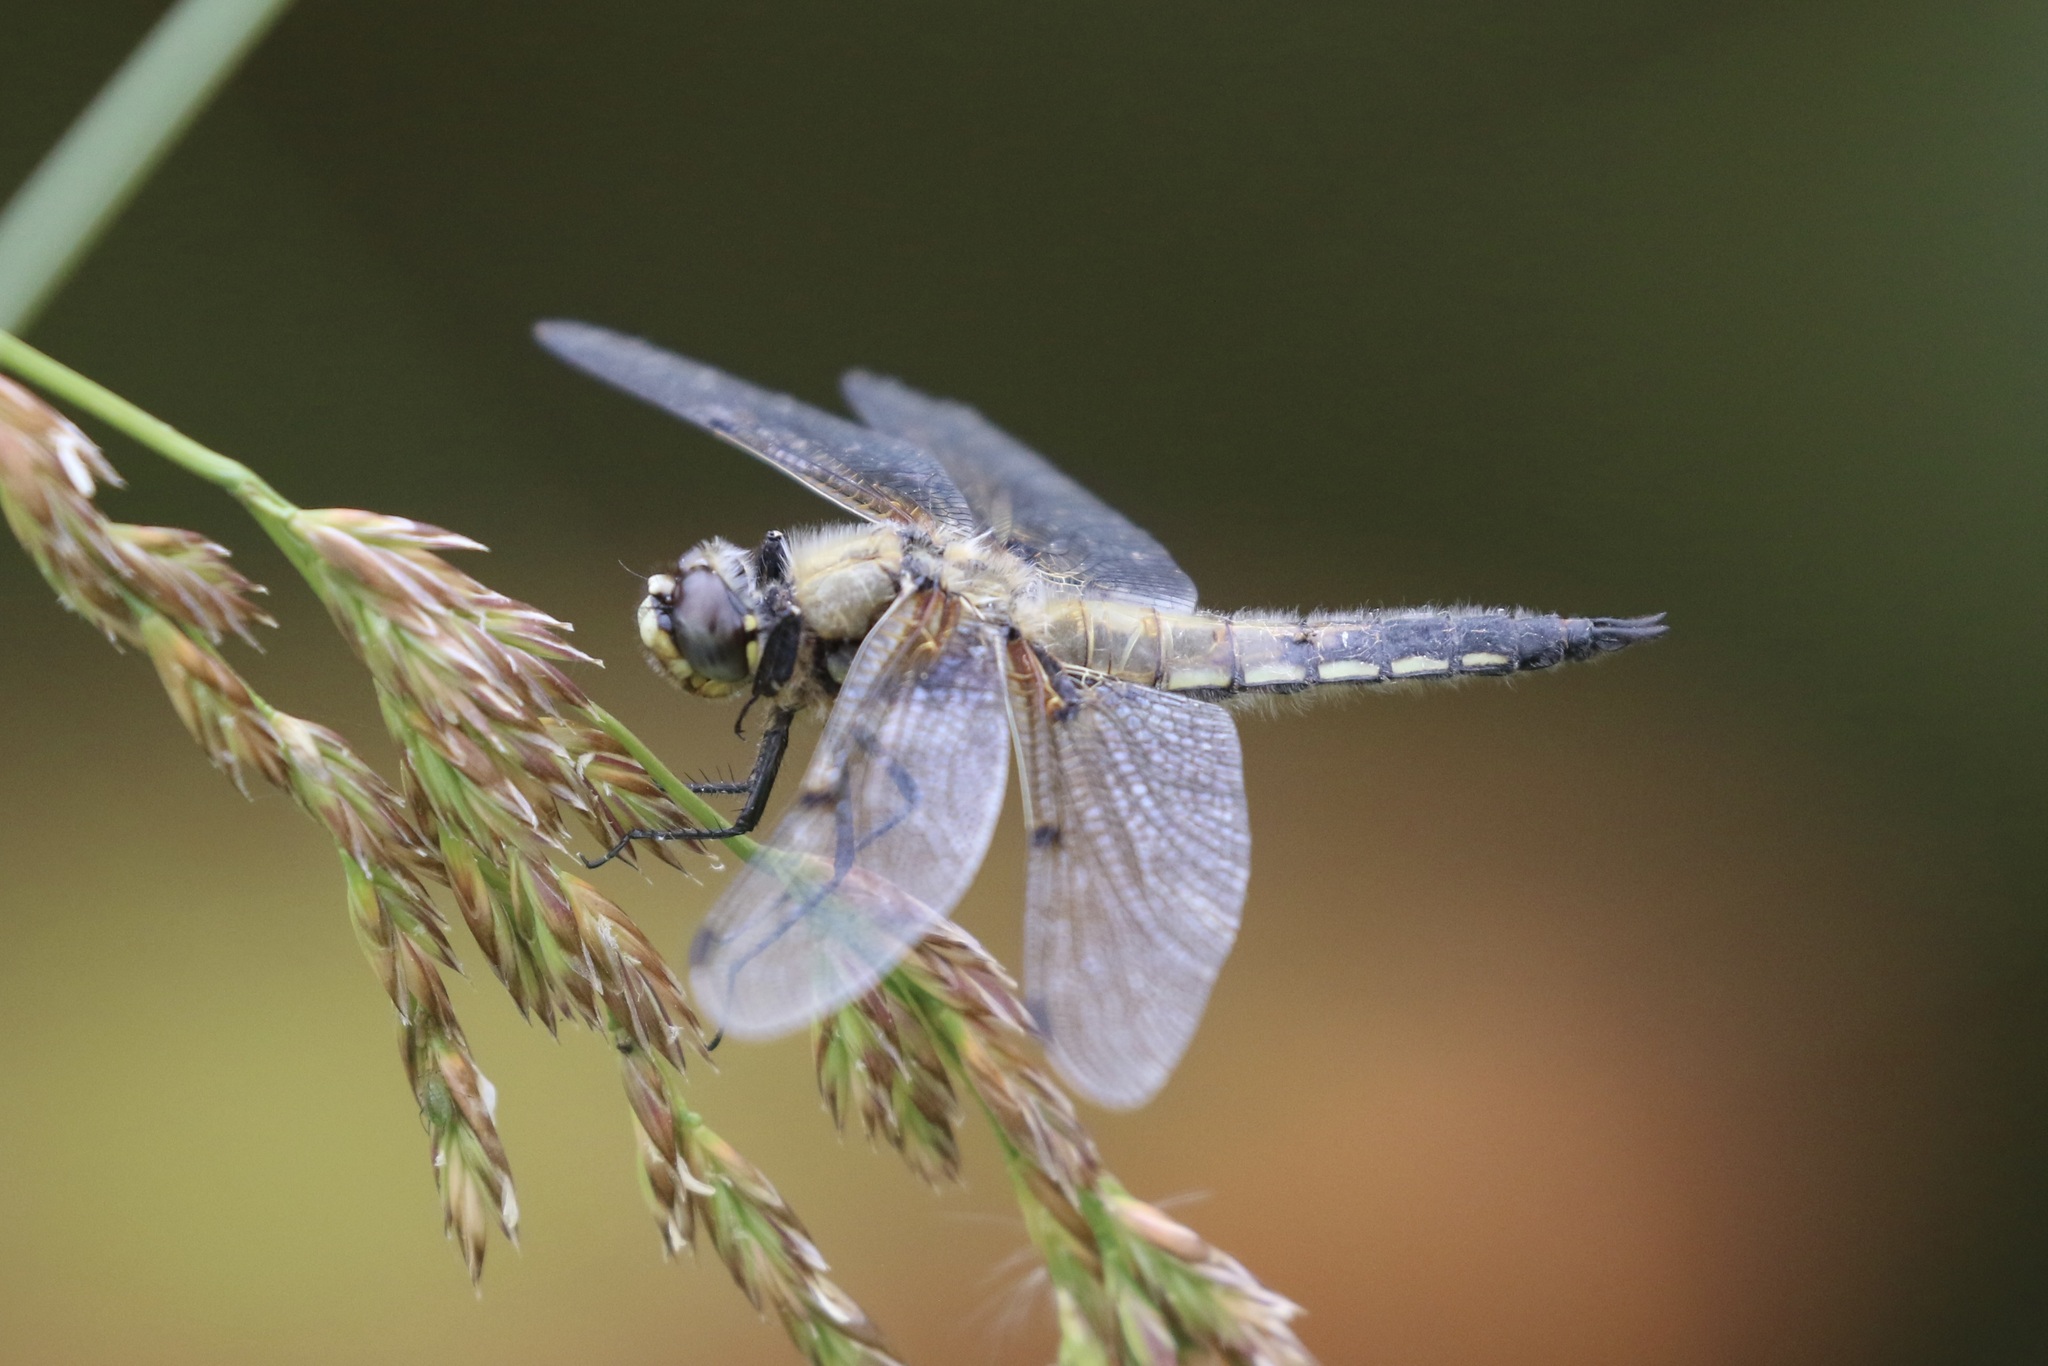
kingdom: Animalia
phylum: Arthropoda
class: Insecta
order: Odonata
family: Libellulidae
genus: Libellula
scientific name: Libellula quadrimaculata
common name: Four-spotted chaser
